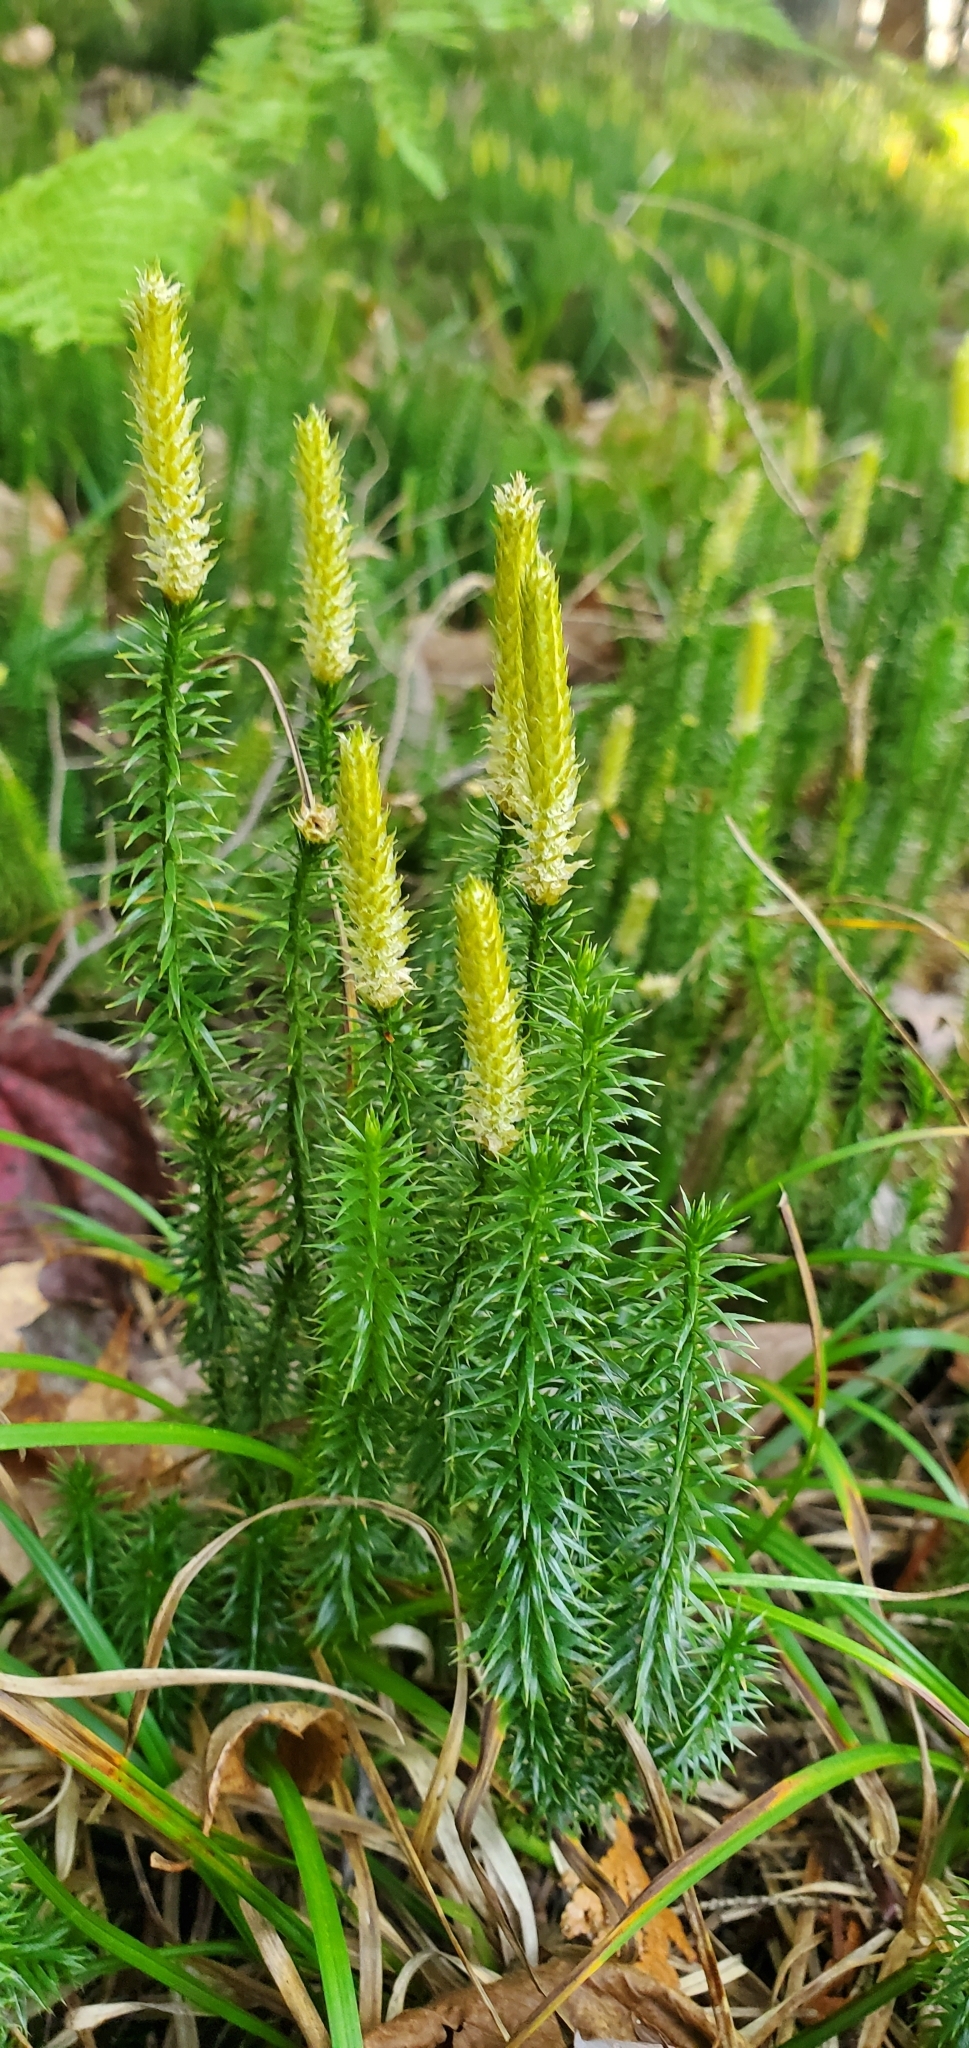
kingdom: Plantae
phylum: Tracheophyta
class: Lycopodiopsida
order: Lycopodiales
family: Lycopodiaceae
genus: Spinulum
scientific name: Spinulum annotinum
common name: Interrupted club-moss
